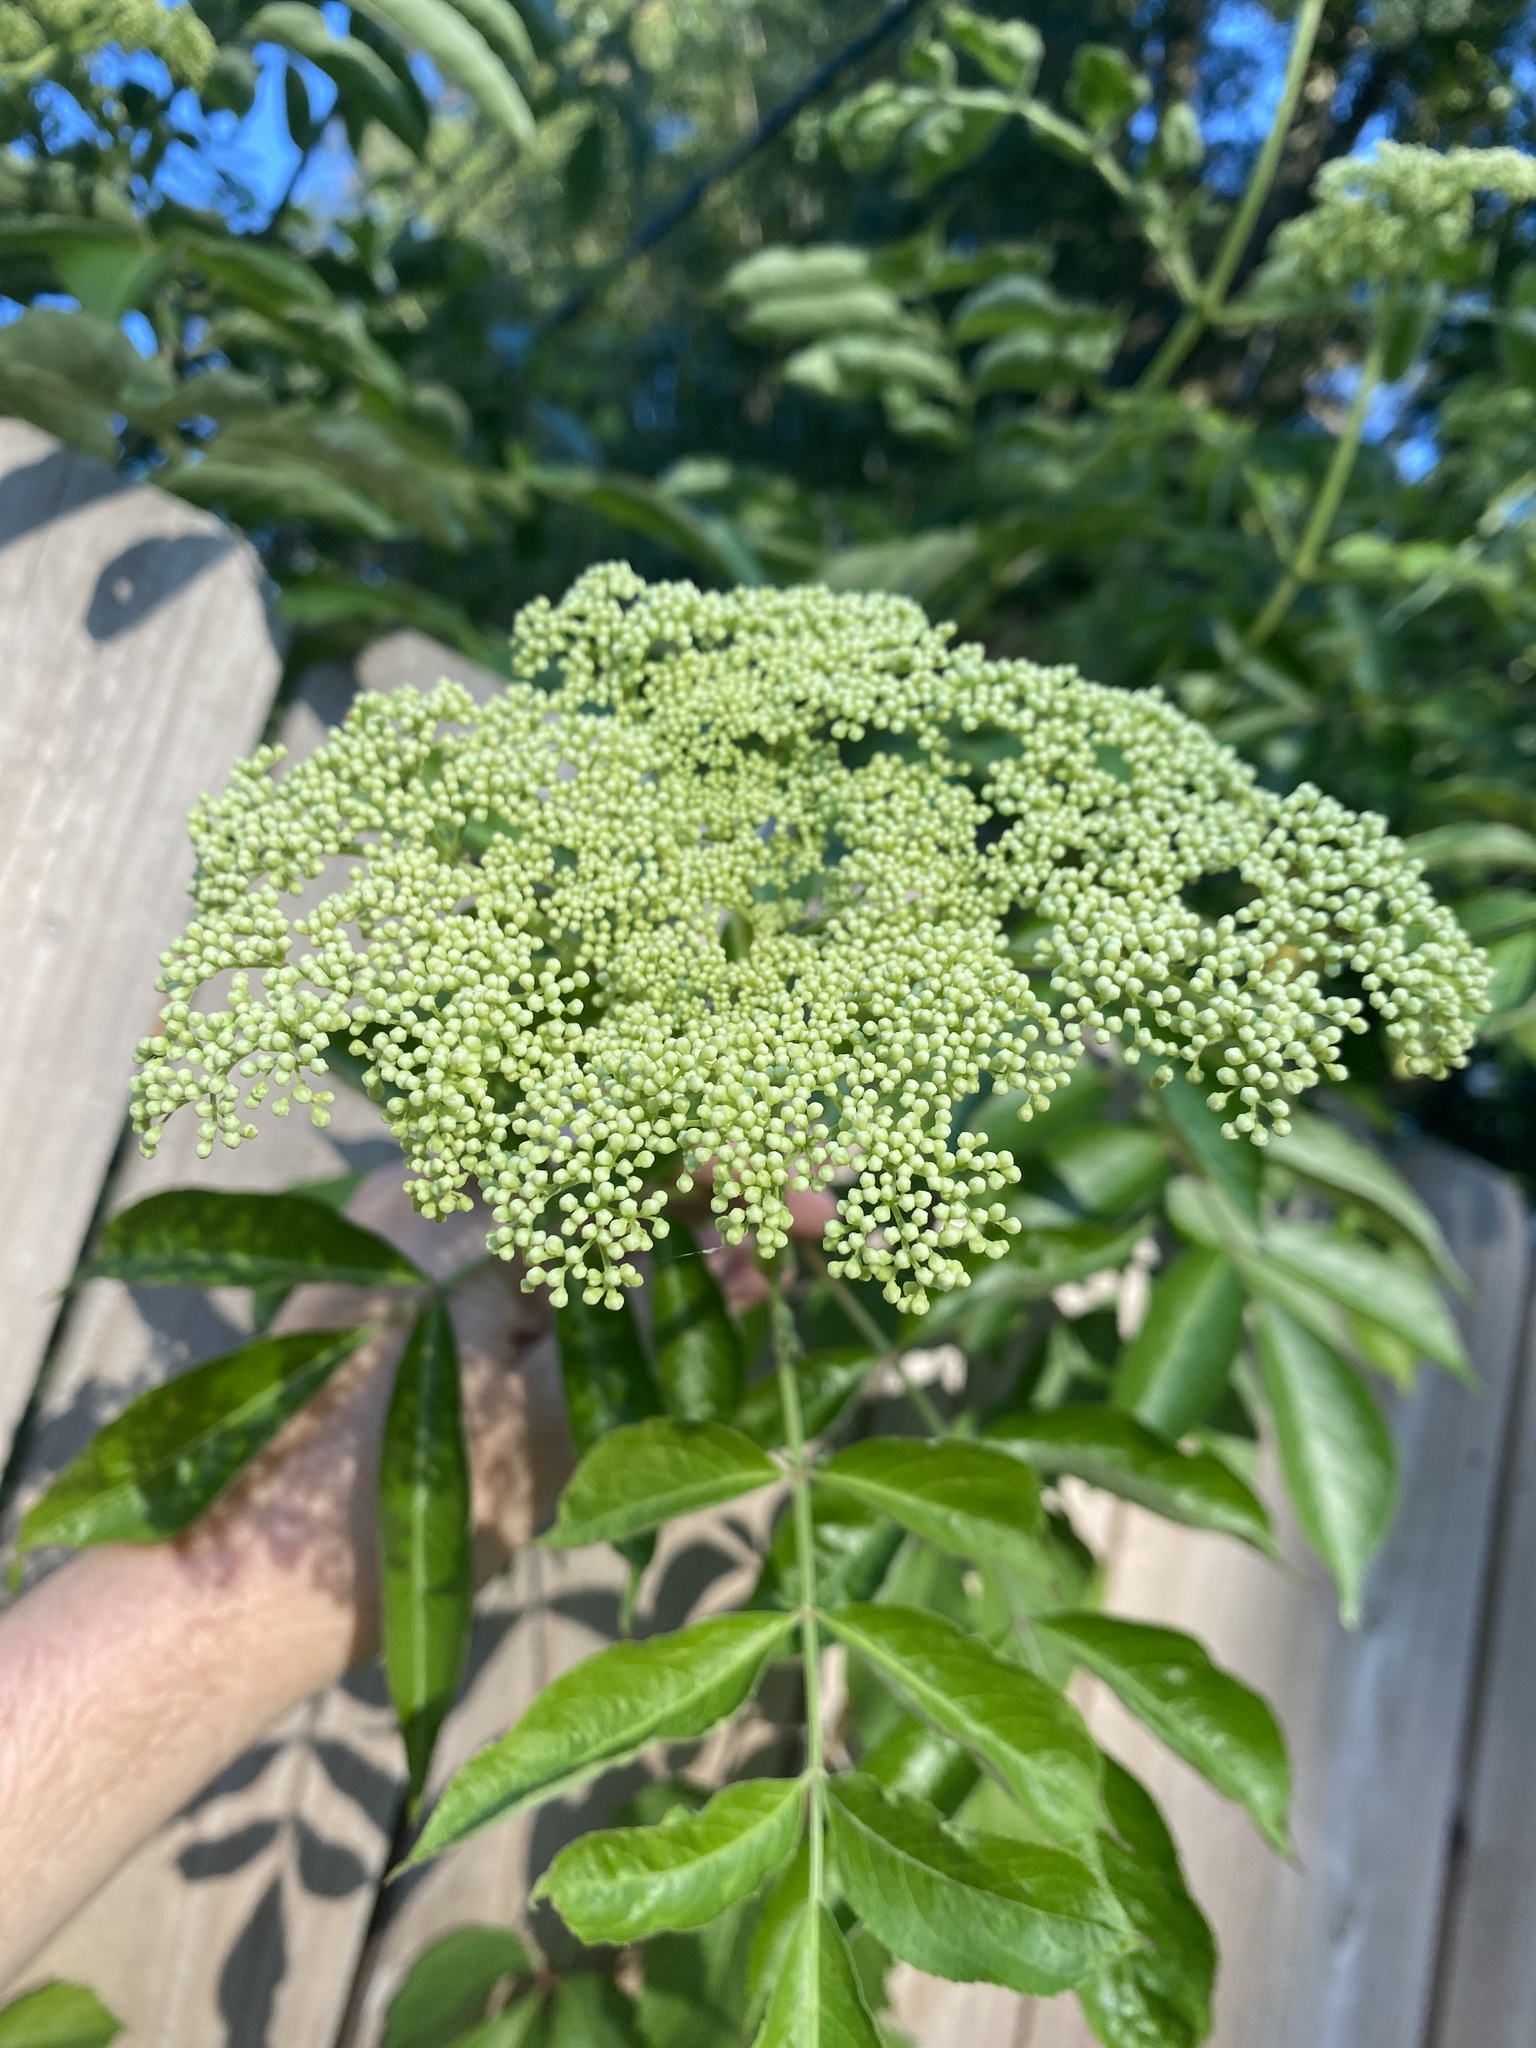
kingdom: Plantae
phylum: Tracheophyta
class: Magnoliopsida
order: Dipsacales
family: Viburnaceae
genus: Sambucus
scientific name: Sambucus canadensis
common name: American elder
